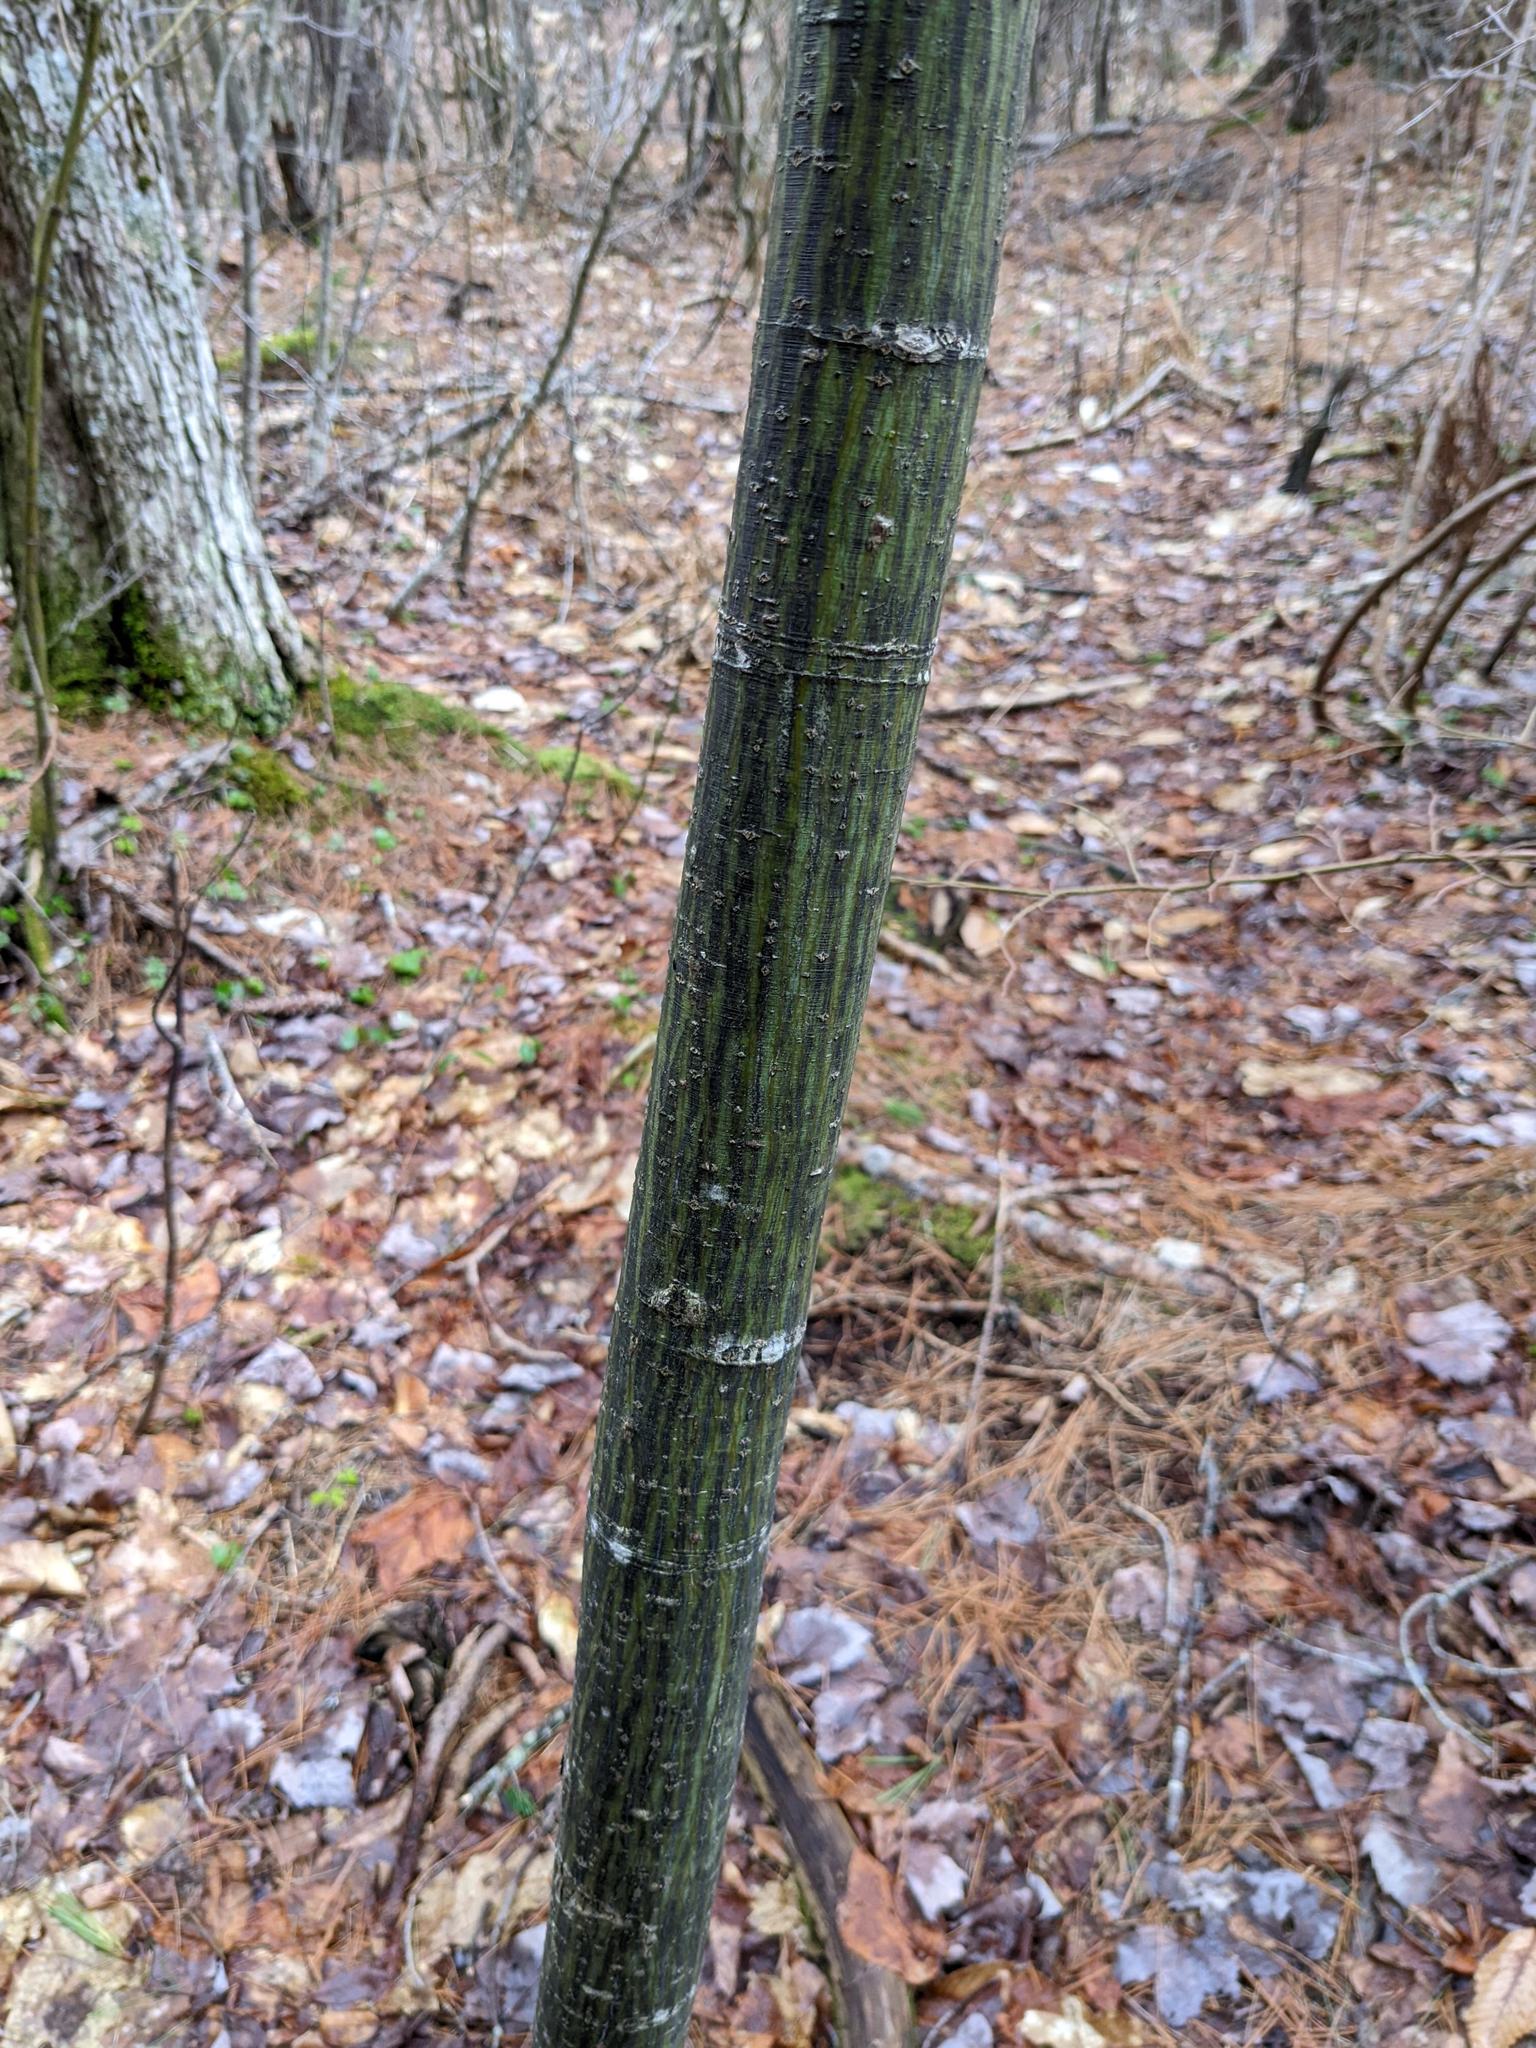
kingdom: Plantae
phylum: Tracheophyta
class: Magnoliopsida
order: Sapindales
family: Sapindaceae
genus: Acer
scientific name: Acer pensylvanicum
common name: Moosewood
